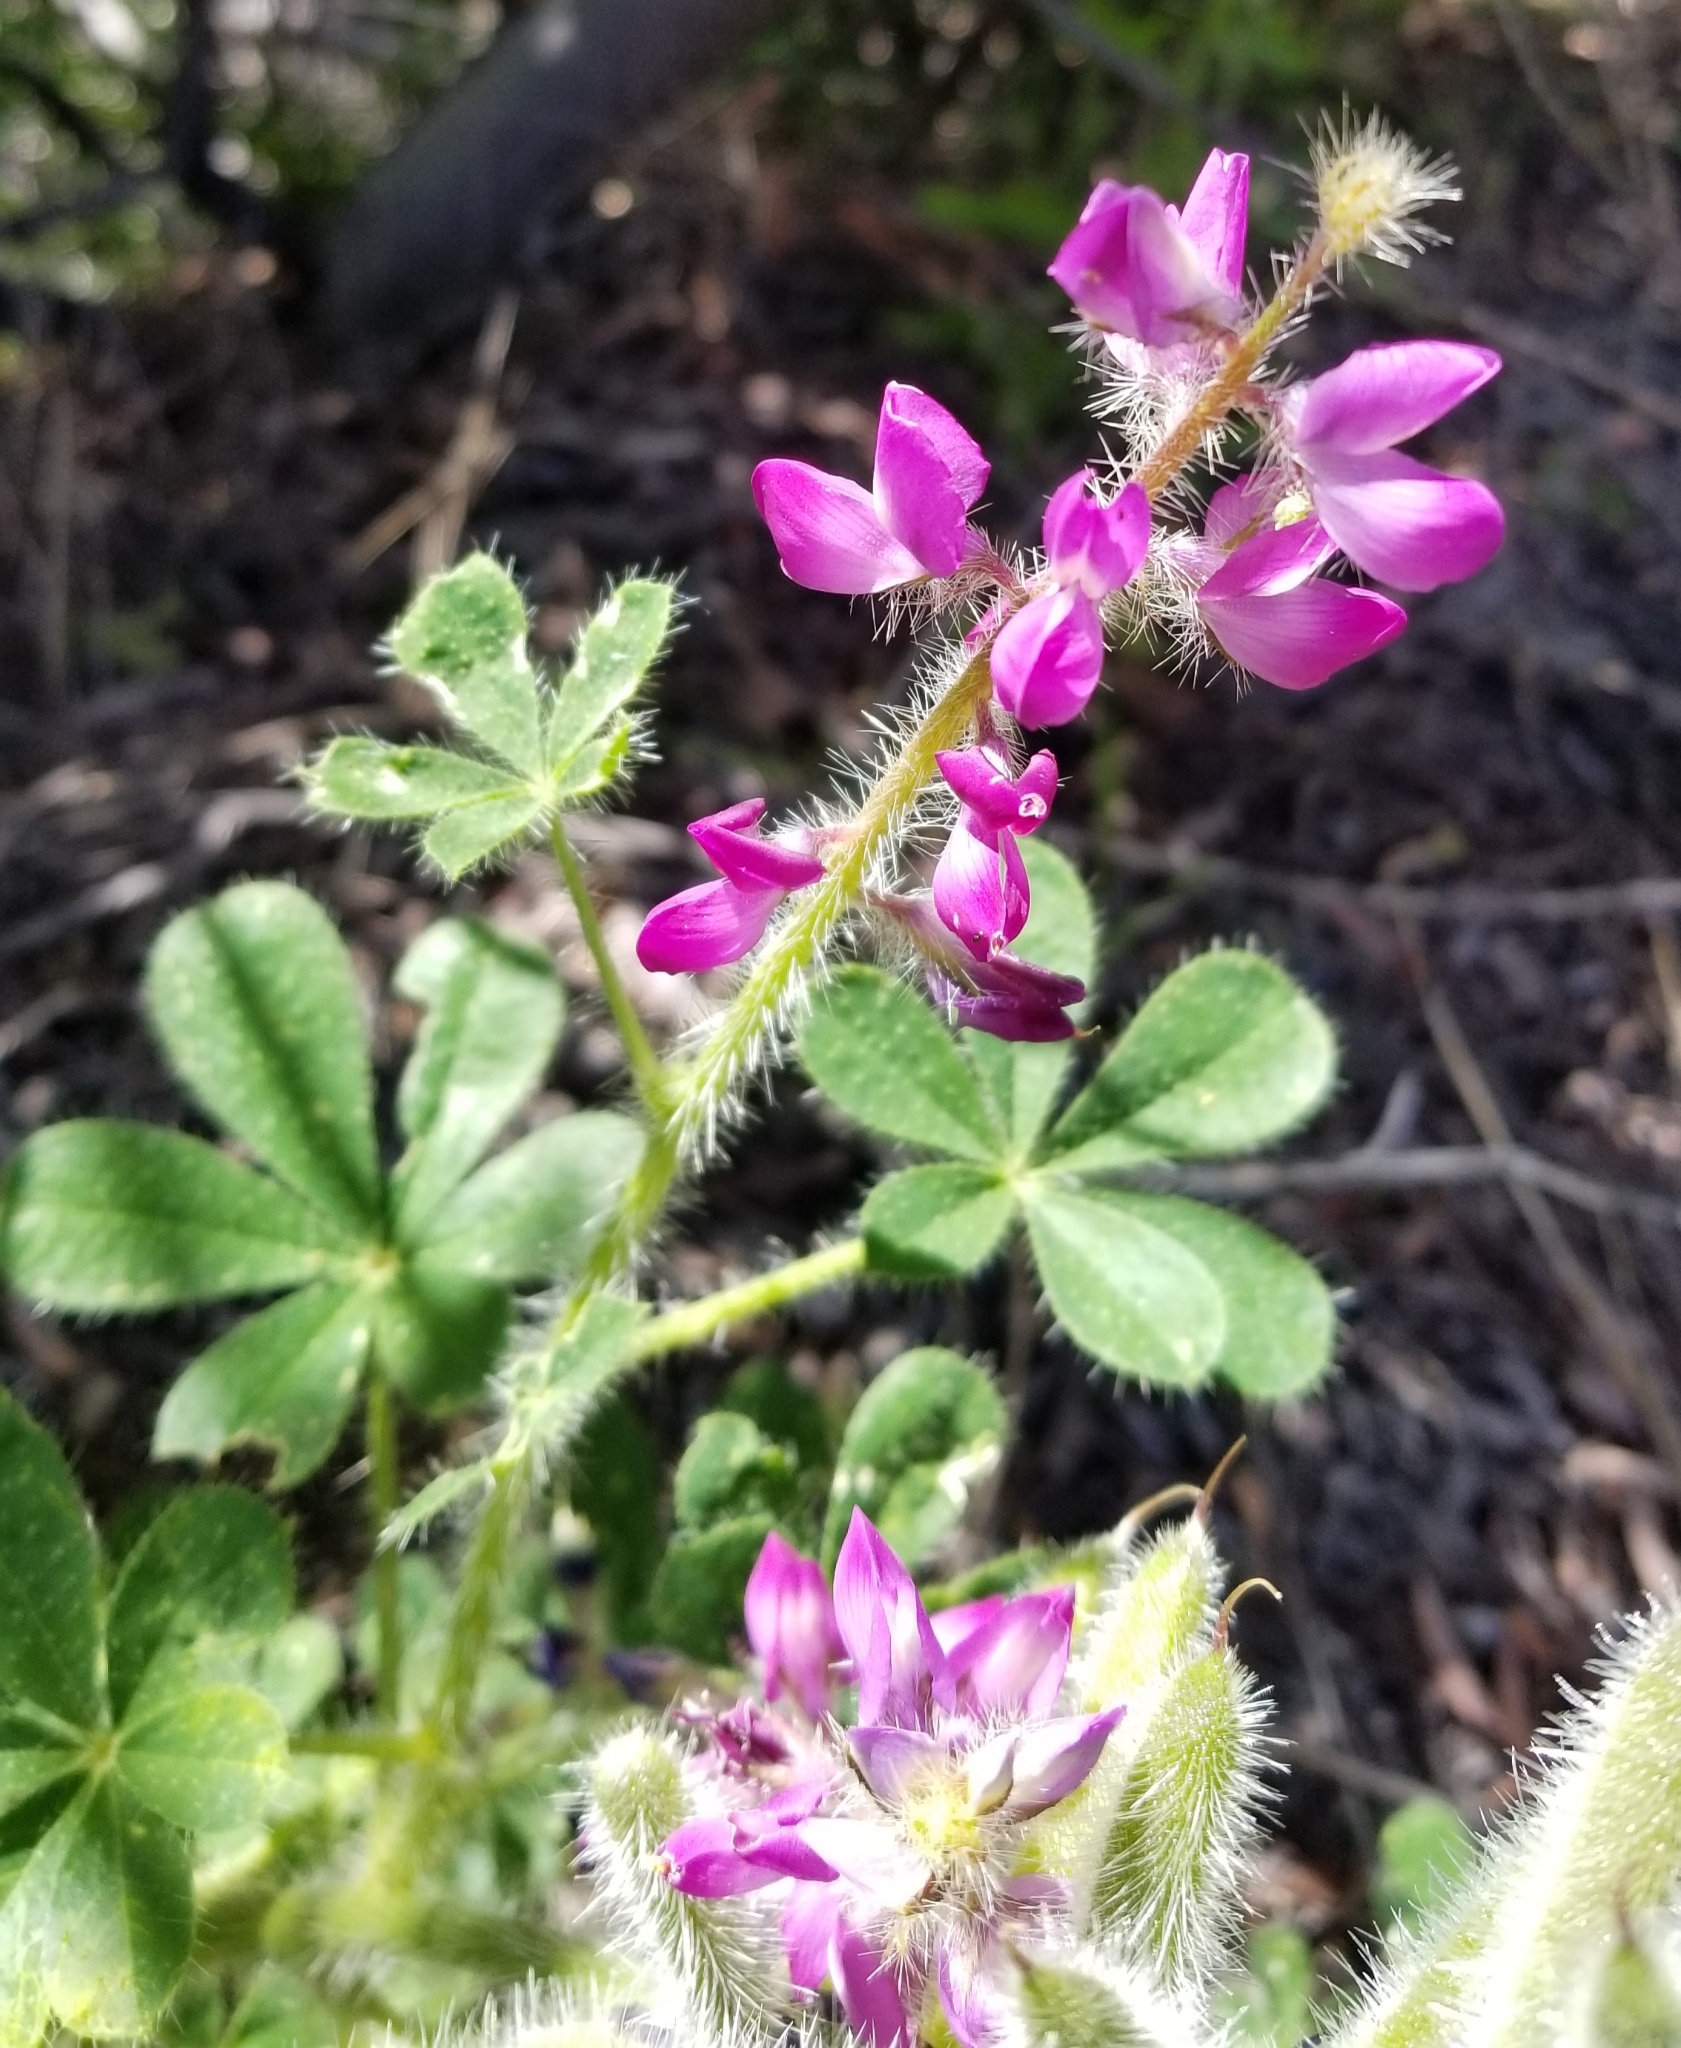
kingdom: Plantae
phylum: Tracheophyta
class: Magnoliopsida
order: Fabales
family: Fabaceae
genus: Lupinus
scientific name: Lupinus hirsutissimus
